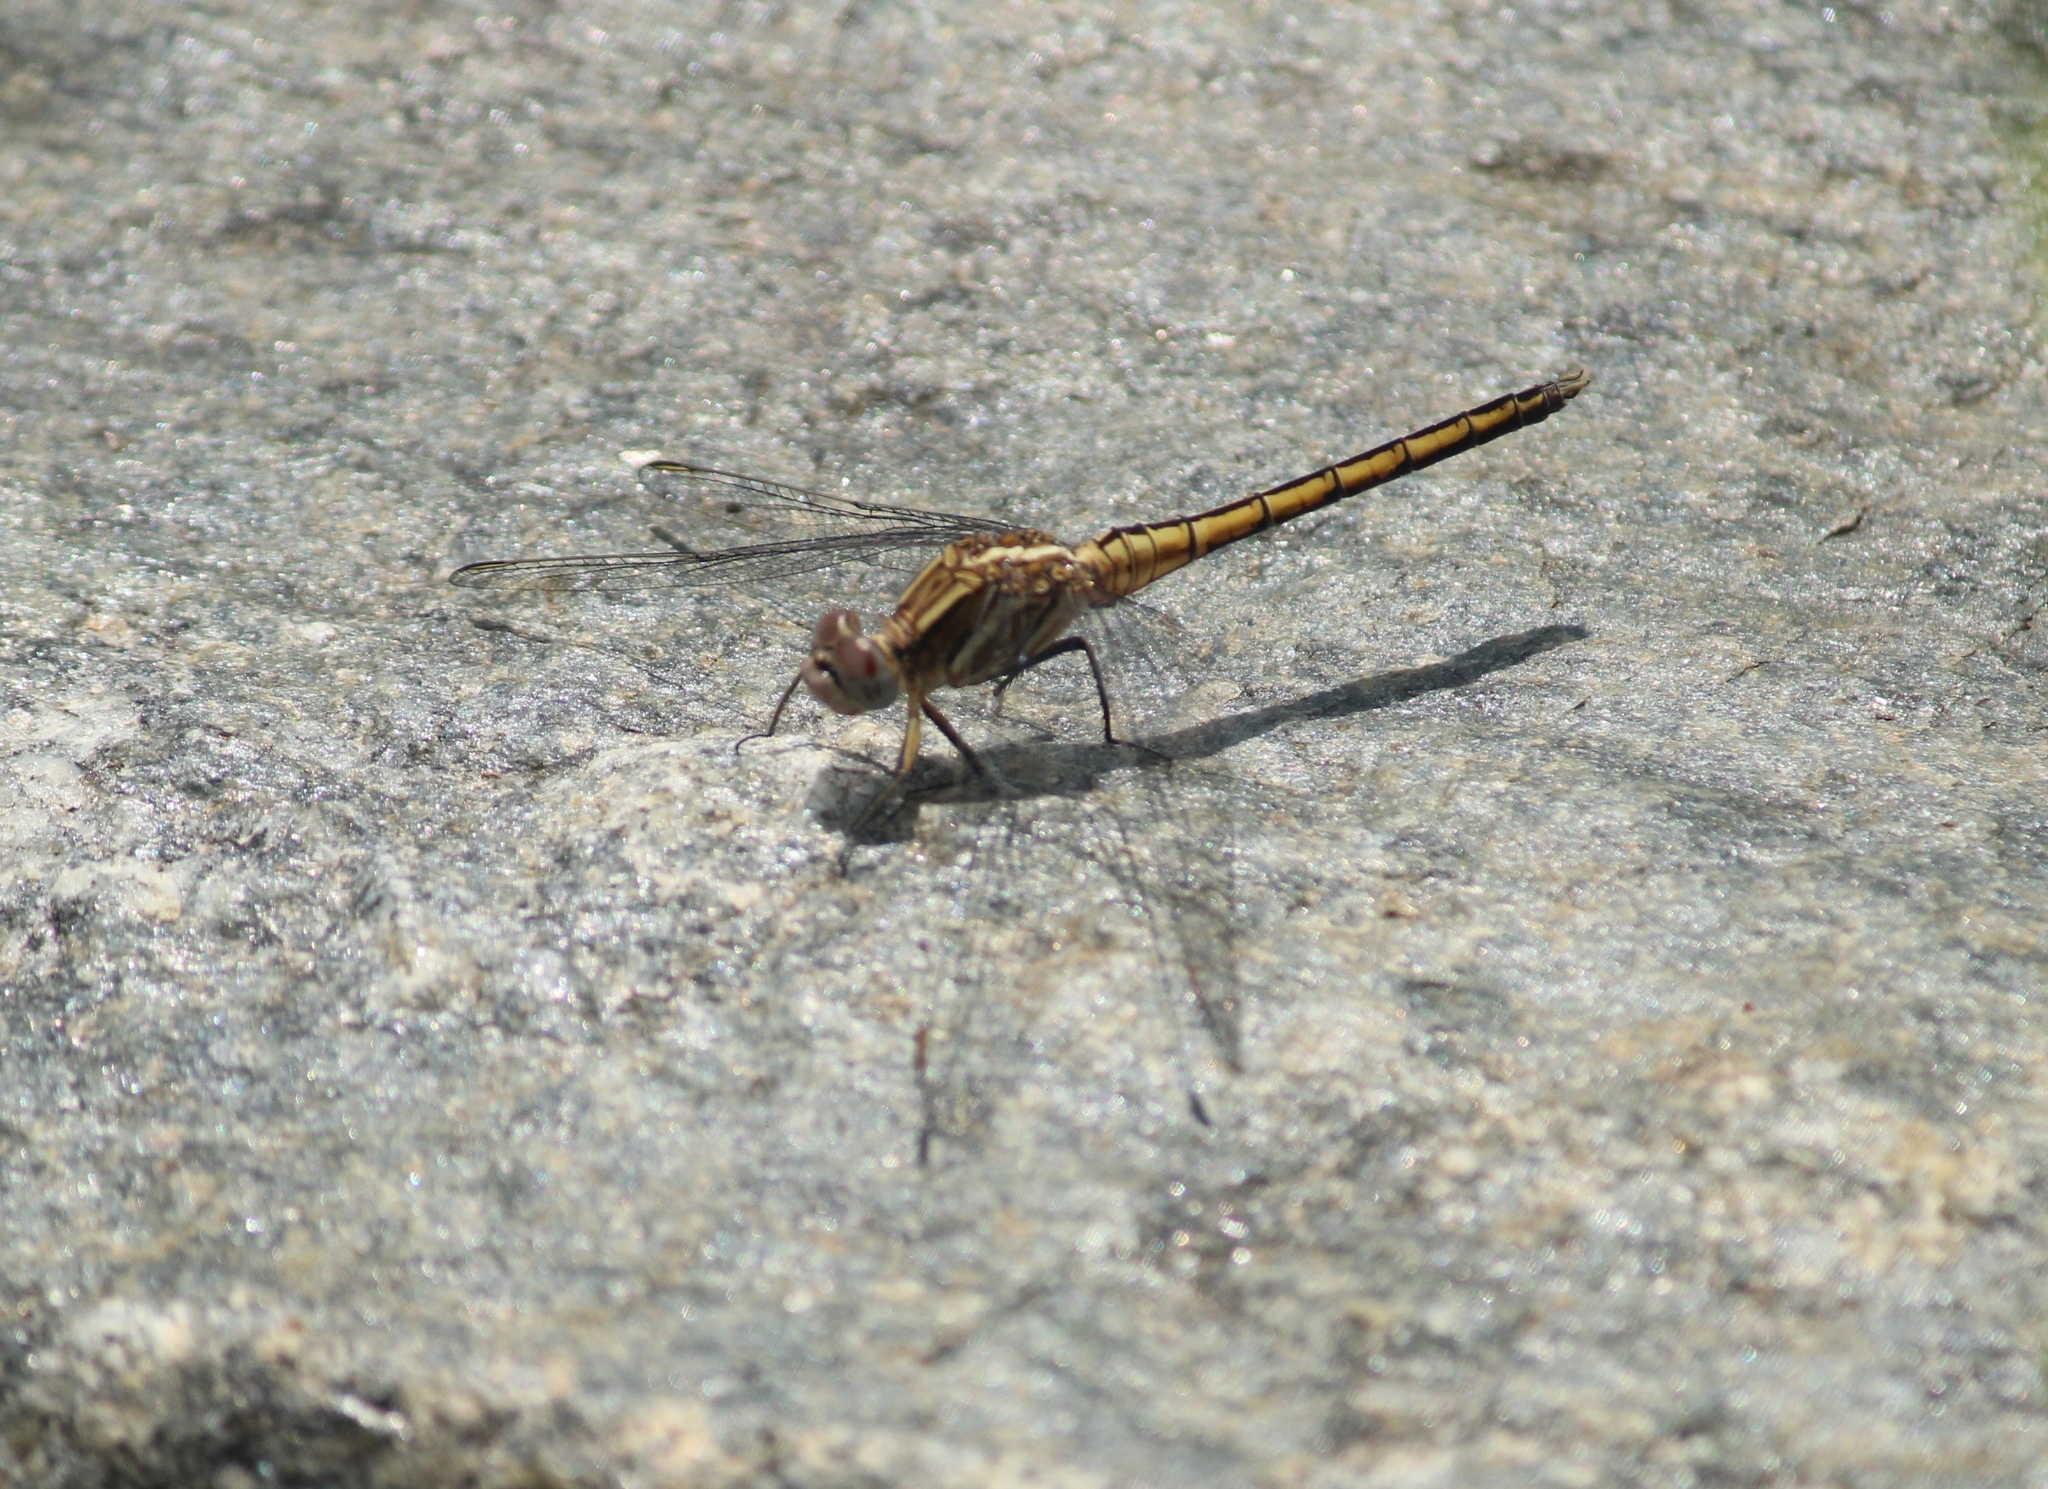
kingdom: Animalia
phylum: Arthropoda
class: Insecta
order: Odonata
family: Libellulidae
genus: Orthetrum
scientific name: Orthetrum taeniolatum
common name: Small skimmer
